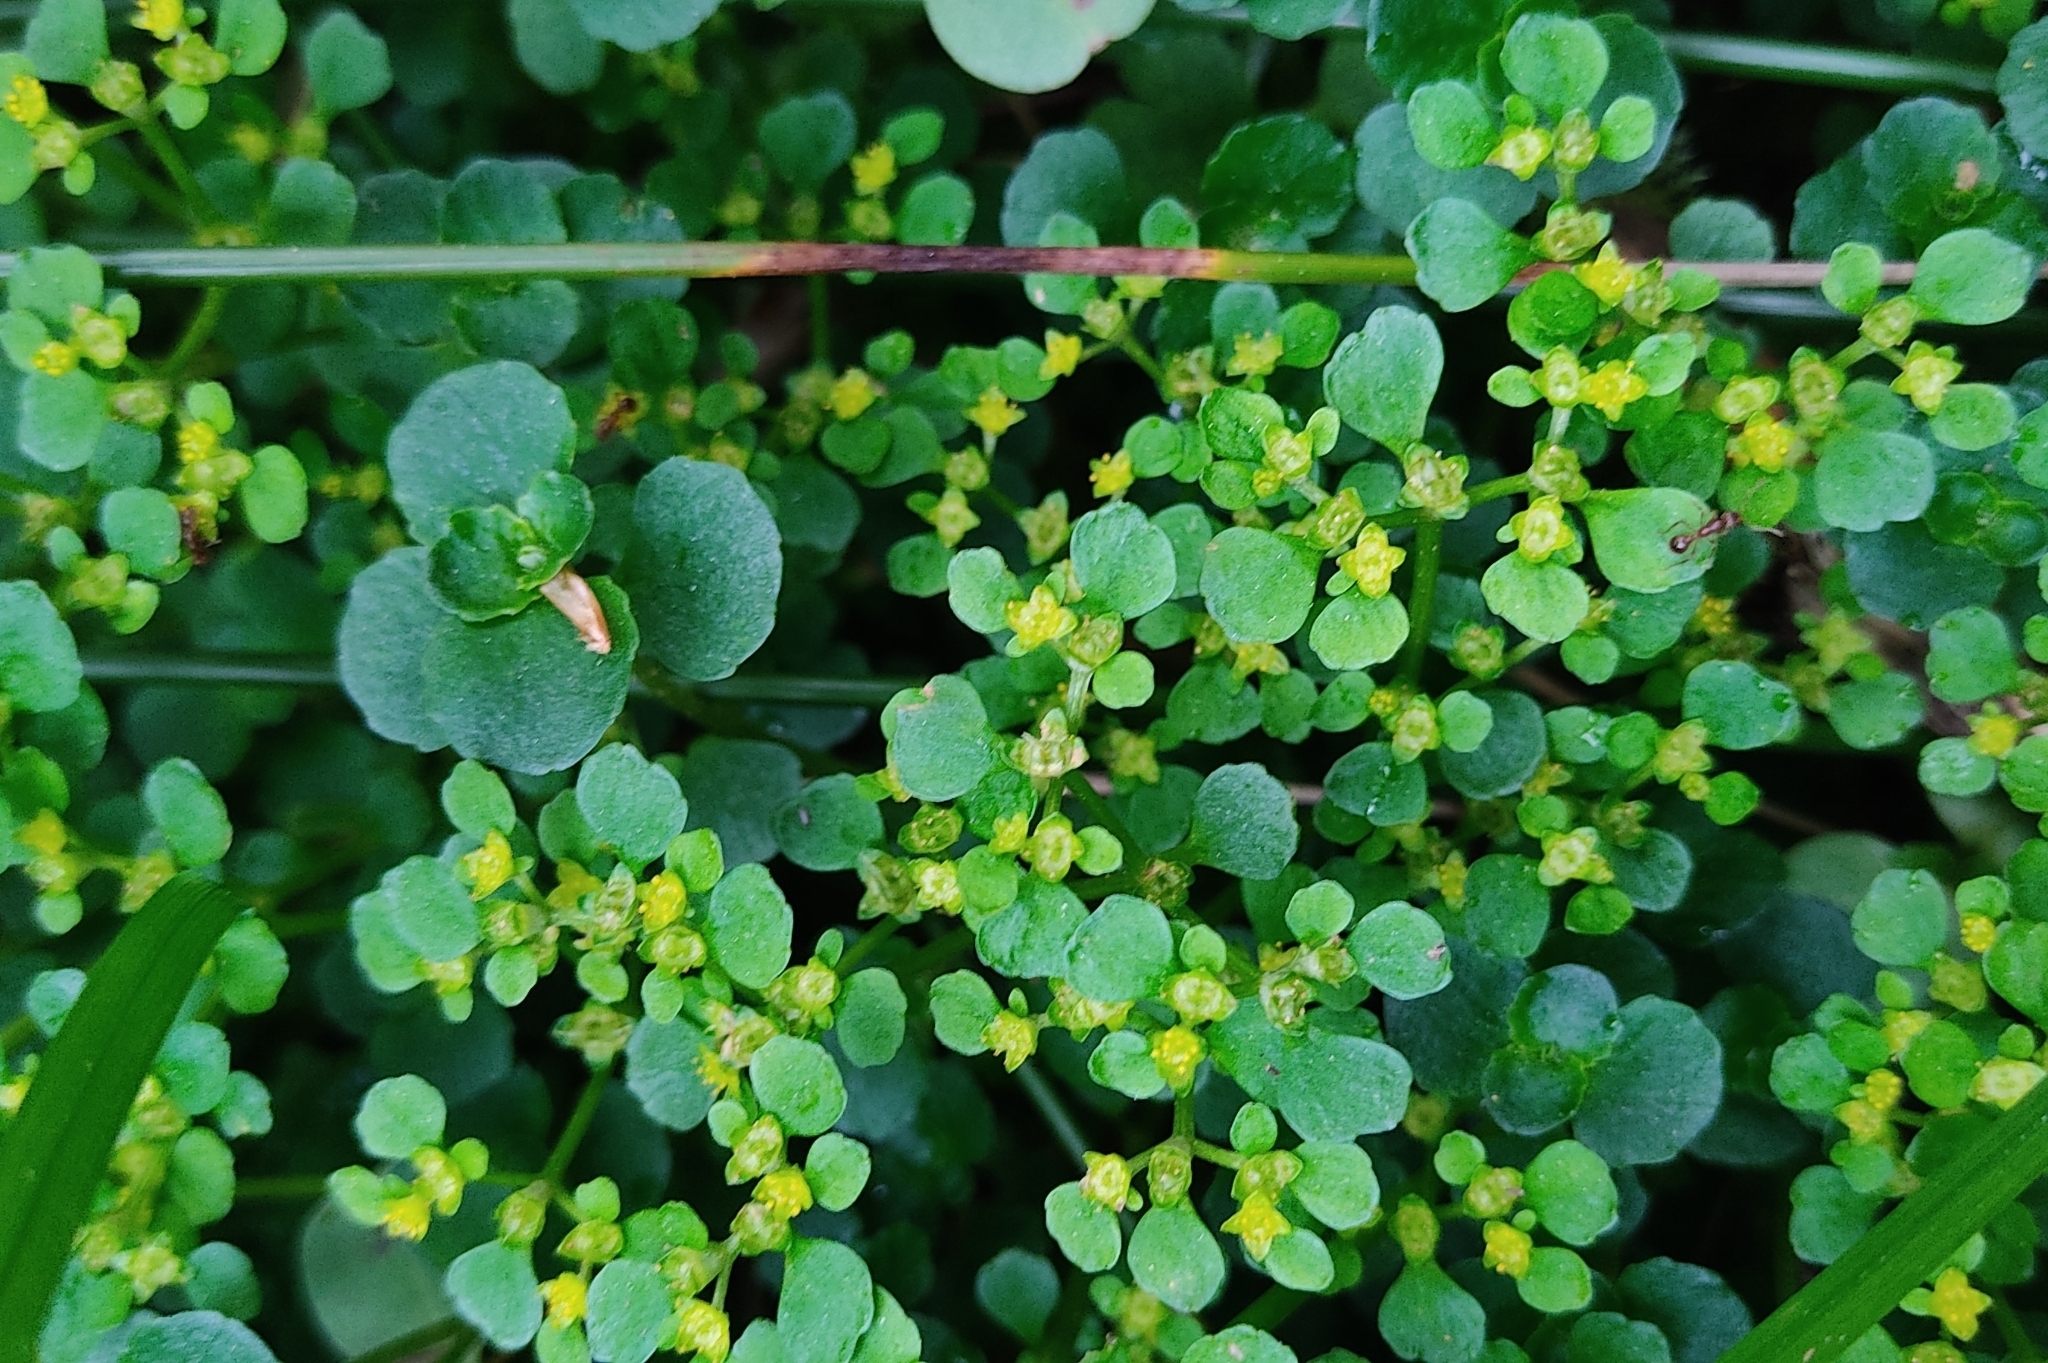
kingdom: Plantae
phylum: Tracheophyta
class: Magnoliopsida
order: Saxifragales
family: Saxifragaceae
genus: Chrysosplenium
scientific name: Chrysosplenium oppositifolium
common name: Opposite-leaved golden-saxifrage
